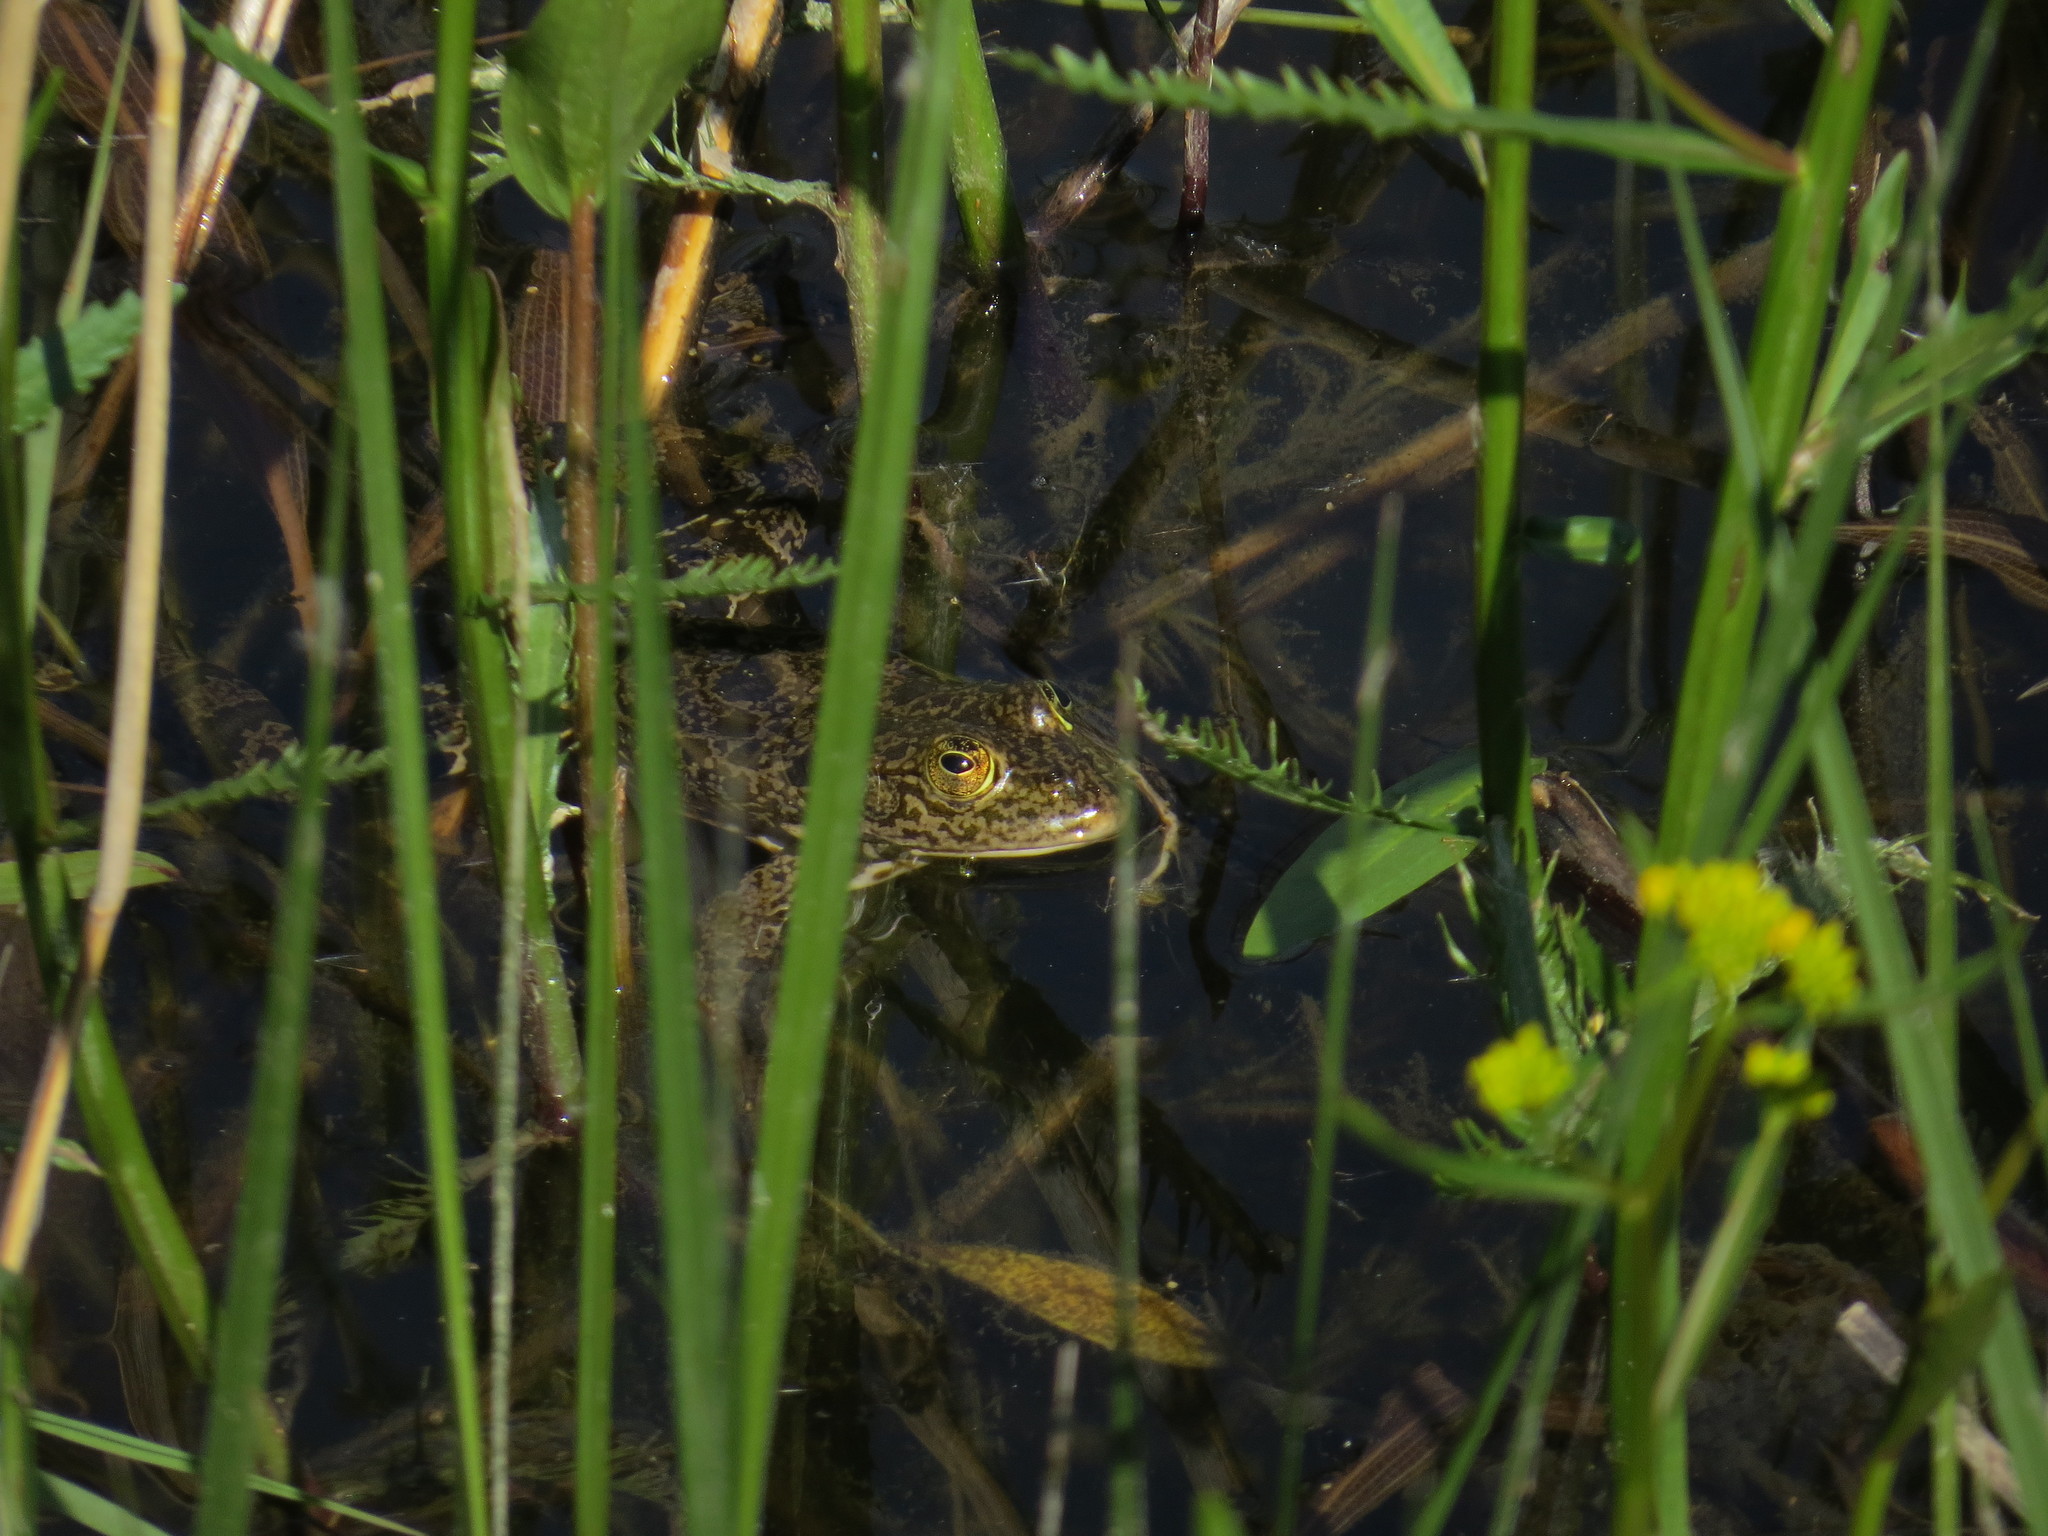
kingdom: Animalia
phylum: Chordata
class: Amphibia
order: Anura
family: Ranidae
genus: Pelophylax
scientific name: Pelophylax ridibundus
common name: Marsh frog
